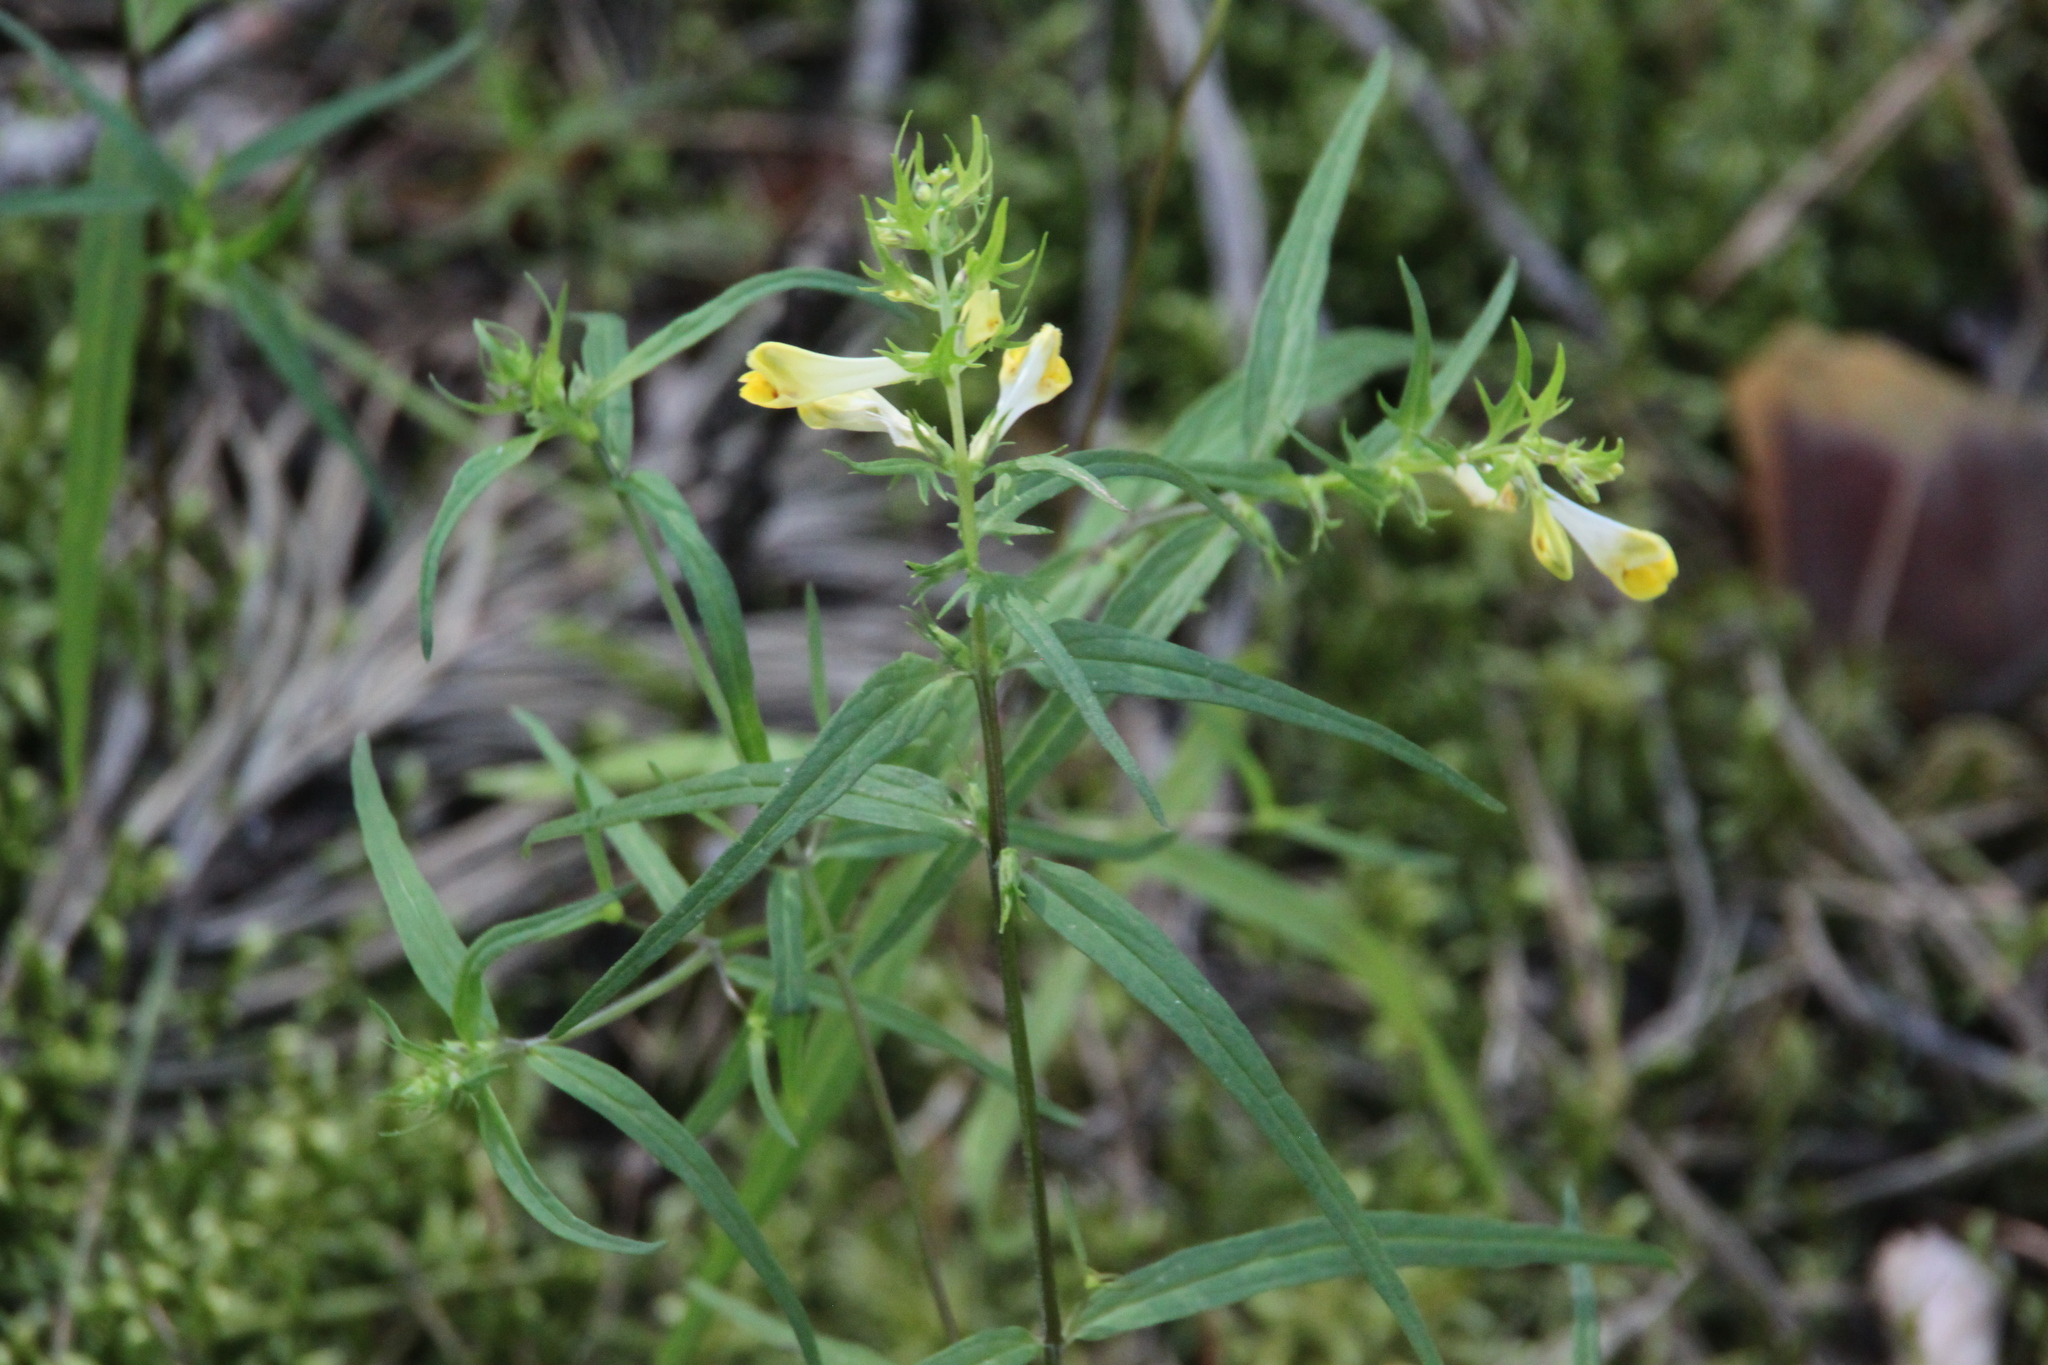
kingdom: Plantae
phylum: Tracheophyta
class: Magnoliopsida
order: Lamiales
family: Orobanchaceae
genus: Melampyrum
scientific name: Melampyrum pratense
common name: Common cow-wheat
